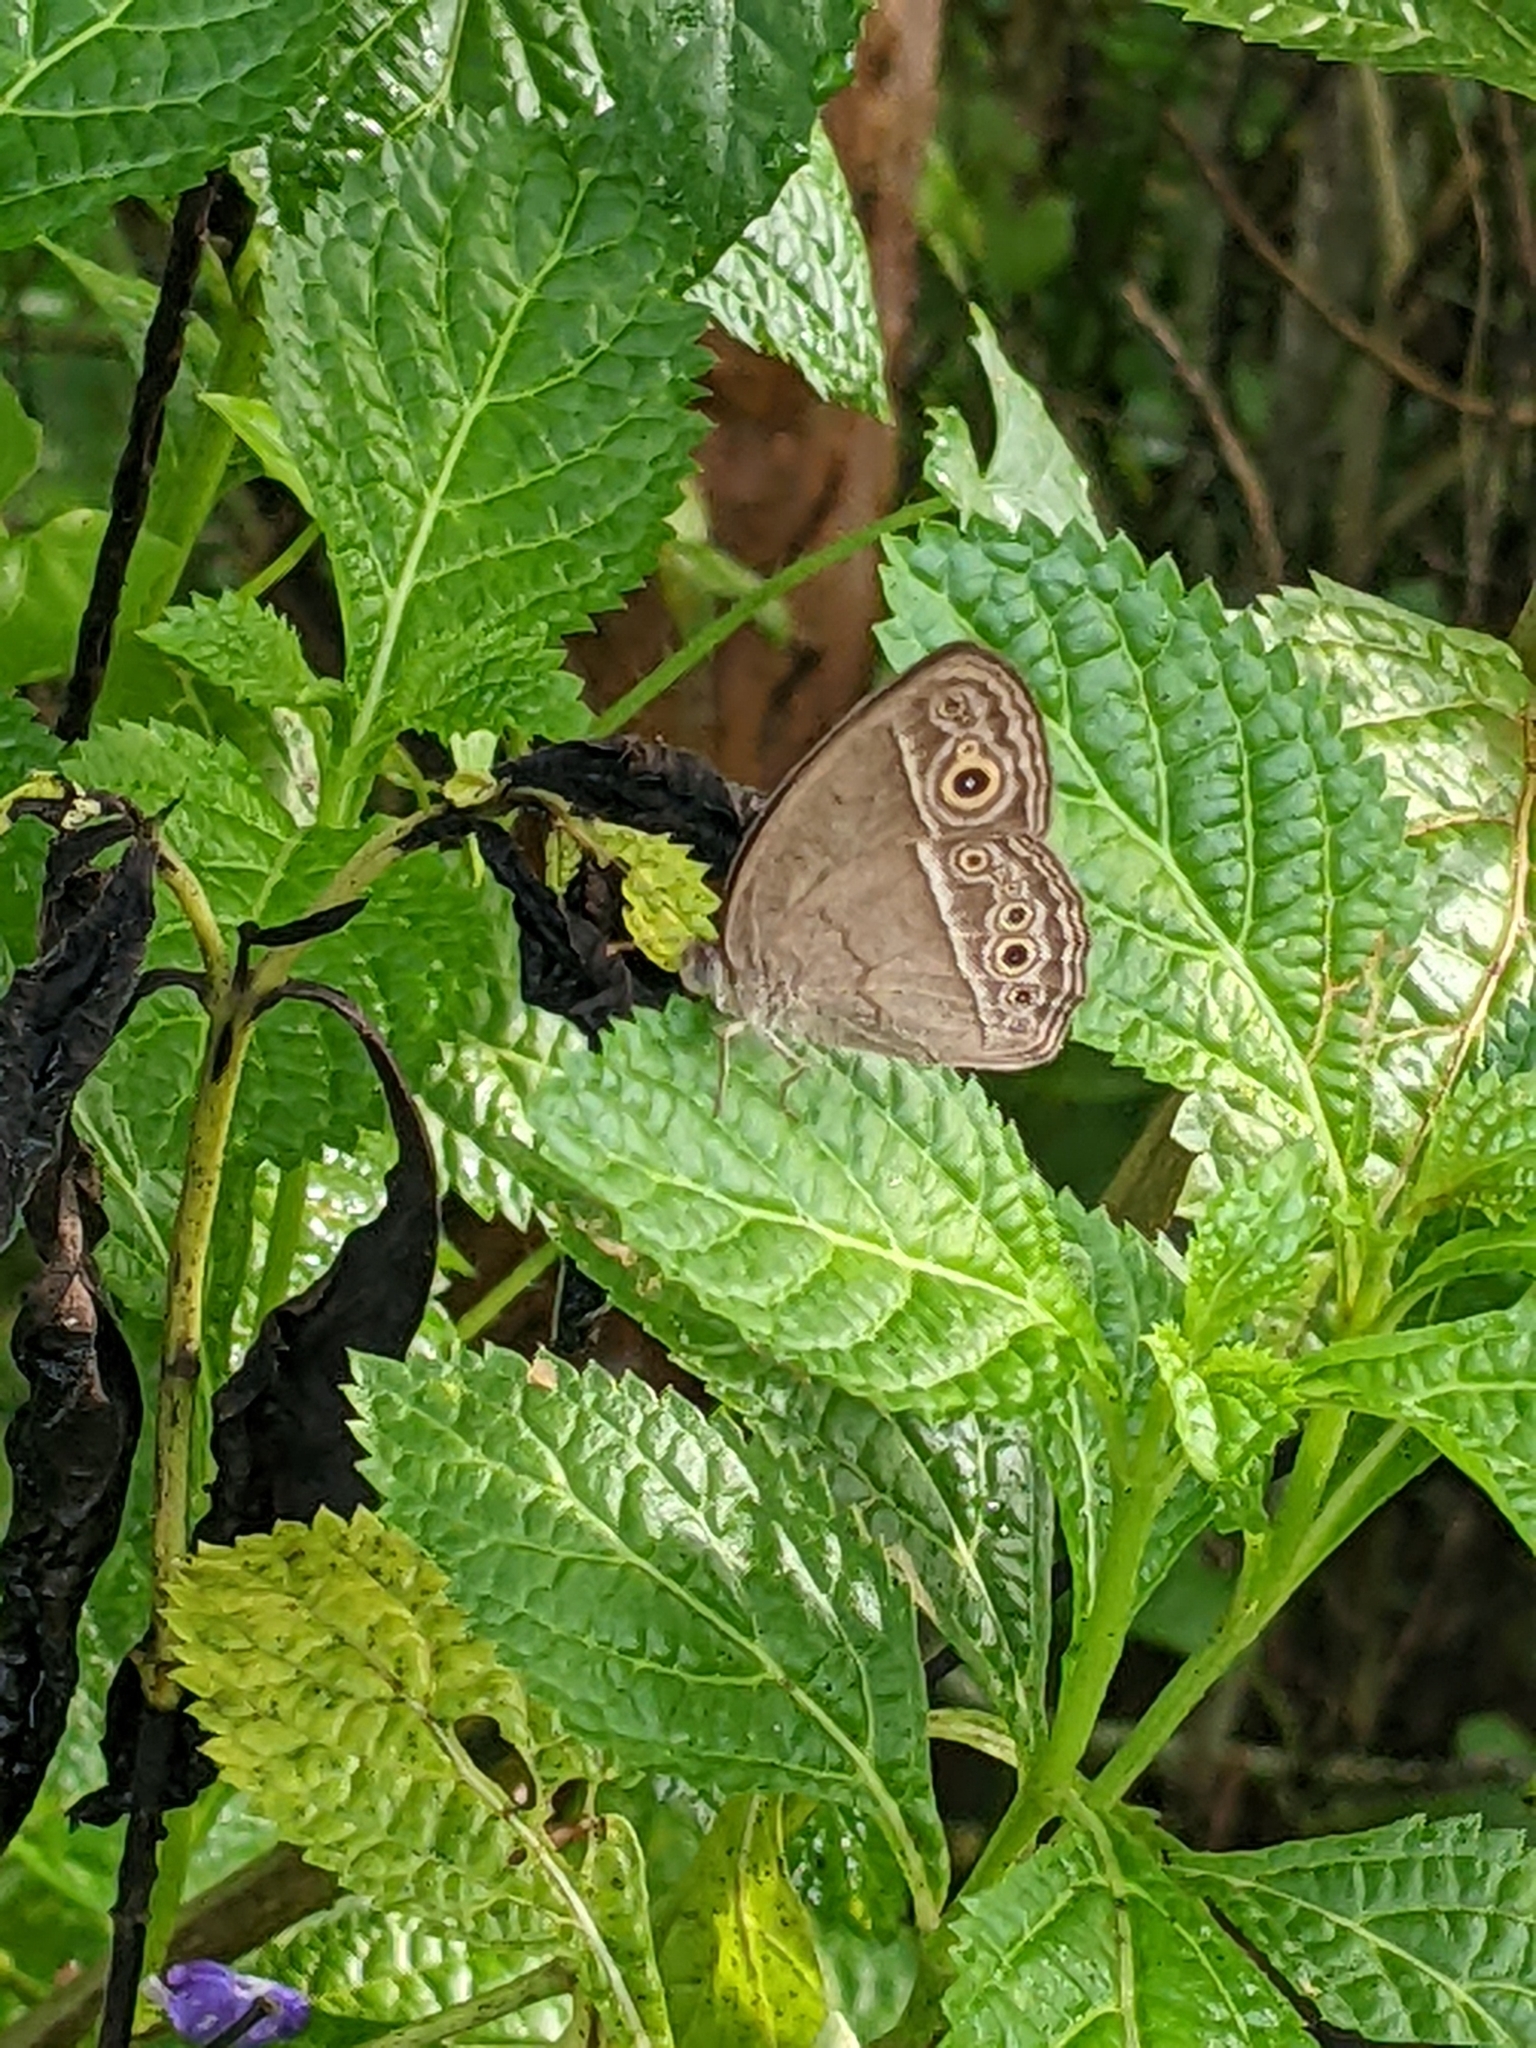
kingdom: Animalia
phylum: Arthropoda
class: Insecta
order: Lepidoptera
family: Nymphalidae
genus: Mycalesis
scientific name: Mycalesis perseoides
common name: Burmese bushbrown
